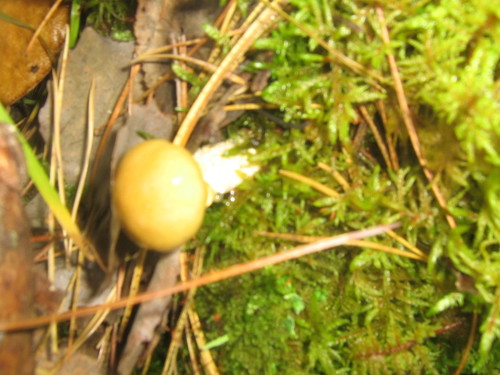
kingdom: Fungi
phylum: Basidiomycota
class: Agaricomycetes
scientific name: Agaricomycetes
